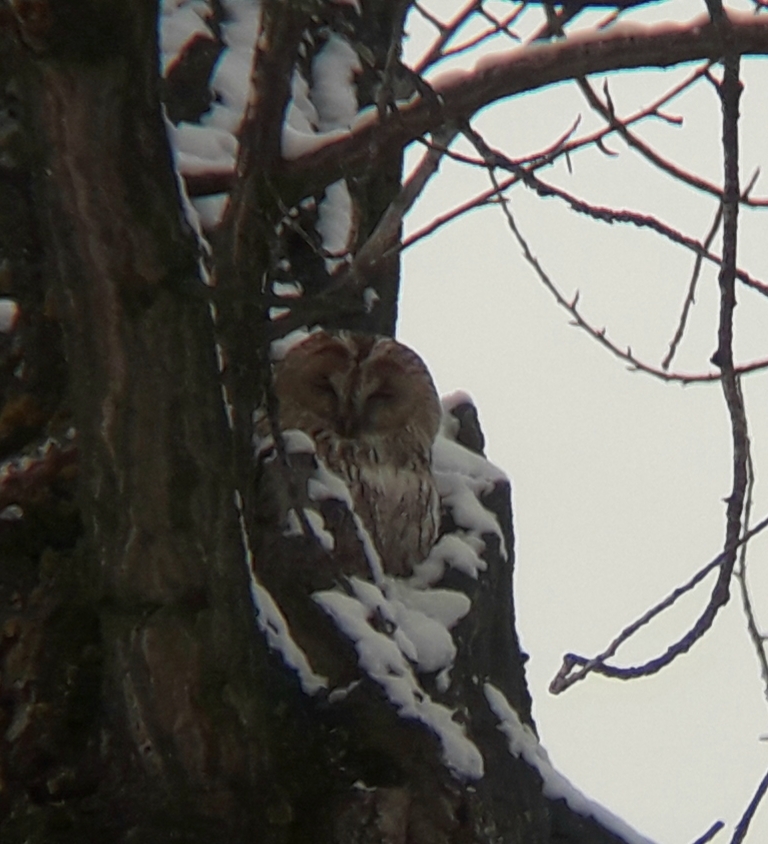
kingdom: Animalia
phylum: Chordata
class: Aves
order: Strigiformes
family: Strigidae
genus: Strix
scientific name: Strix aluco
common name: Tawny owl
